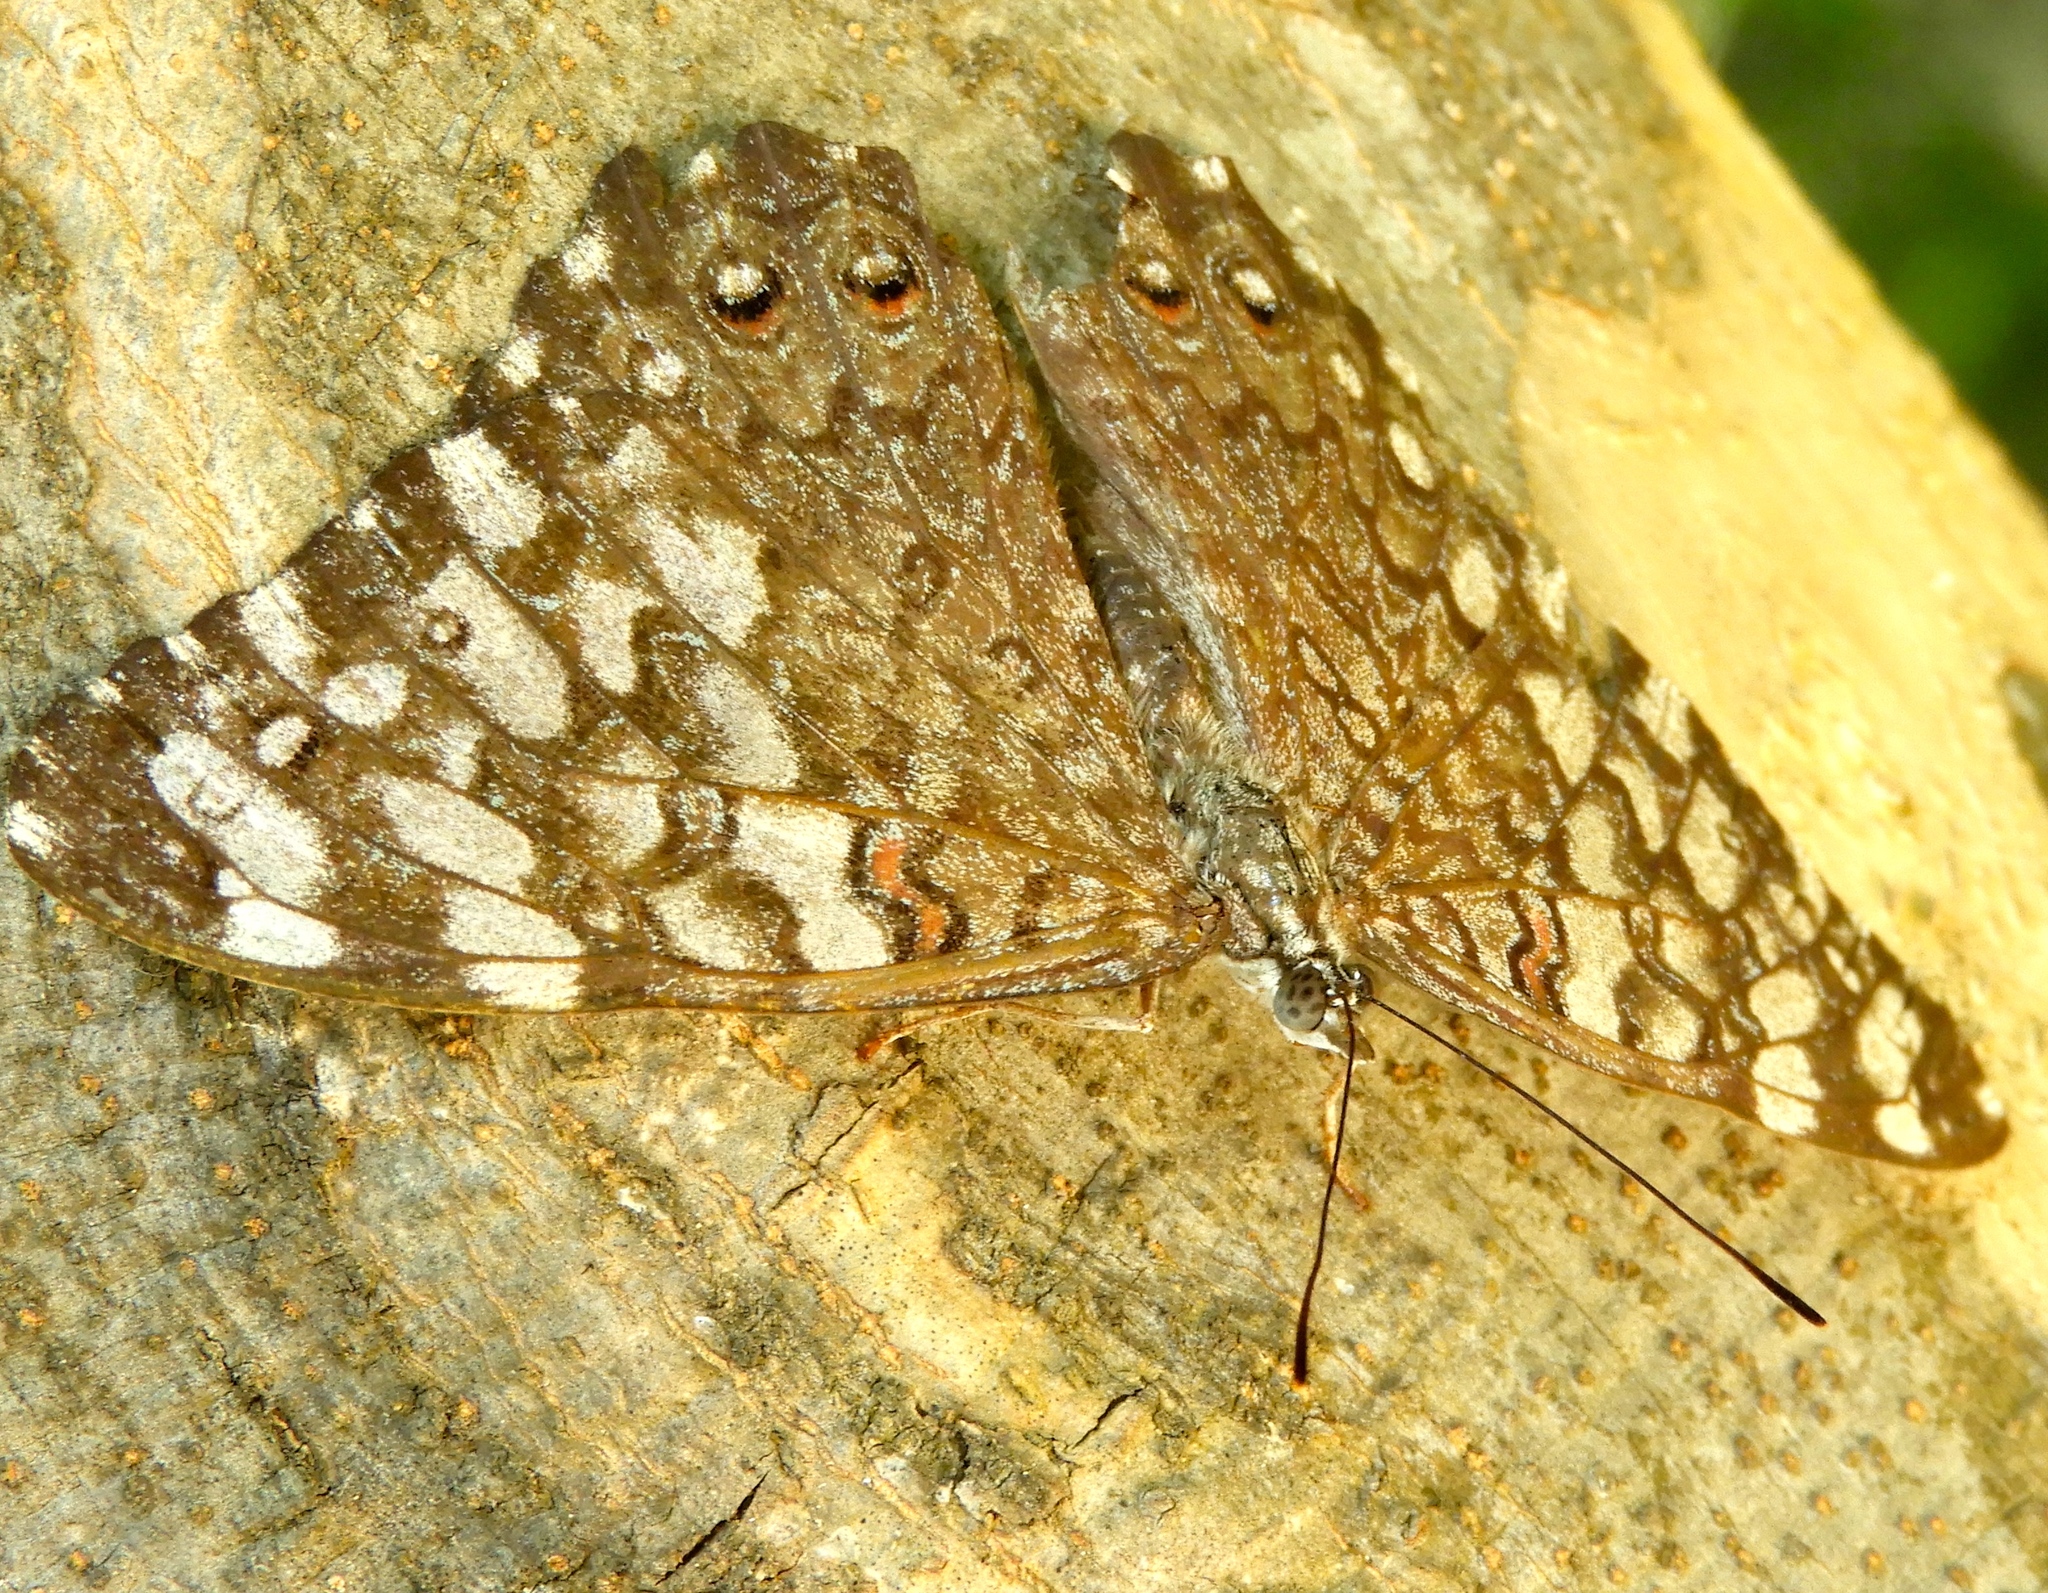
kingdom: Animalia
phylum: Arthropoda
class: Insecta
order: Lepidoptera
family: Nymphalidae
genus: Hamadryas
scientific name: Hamadryas
